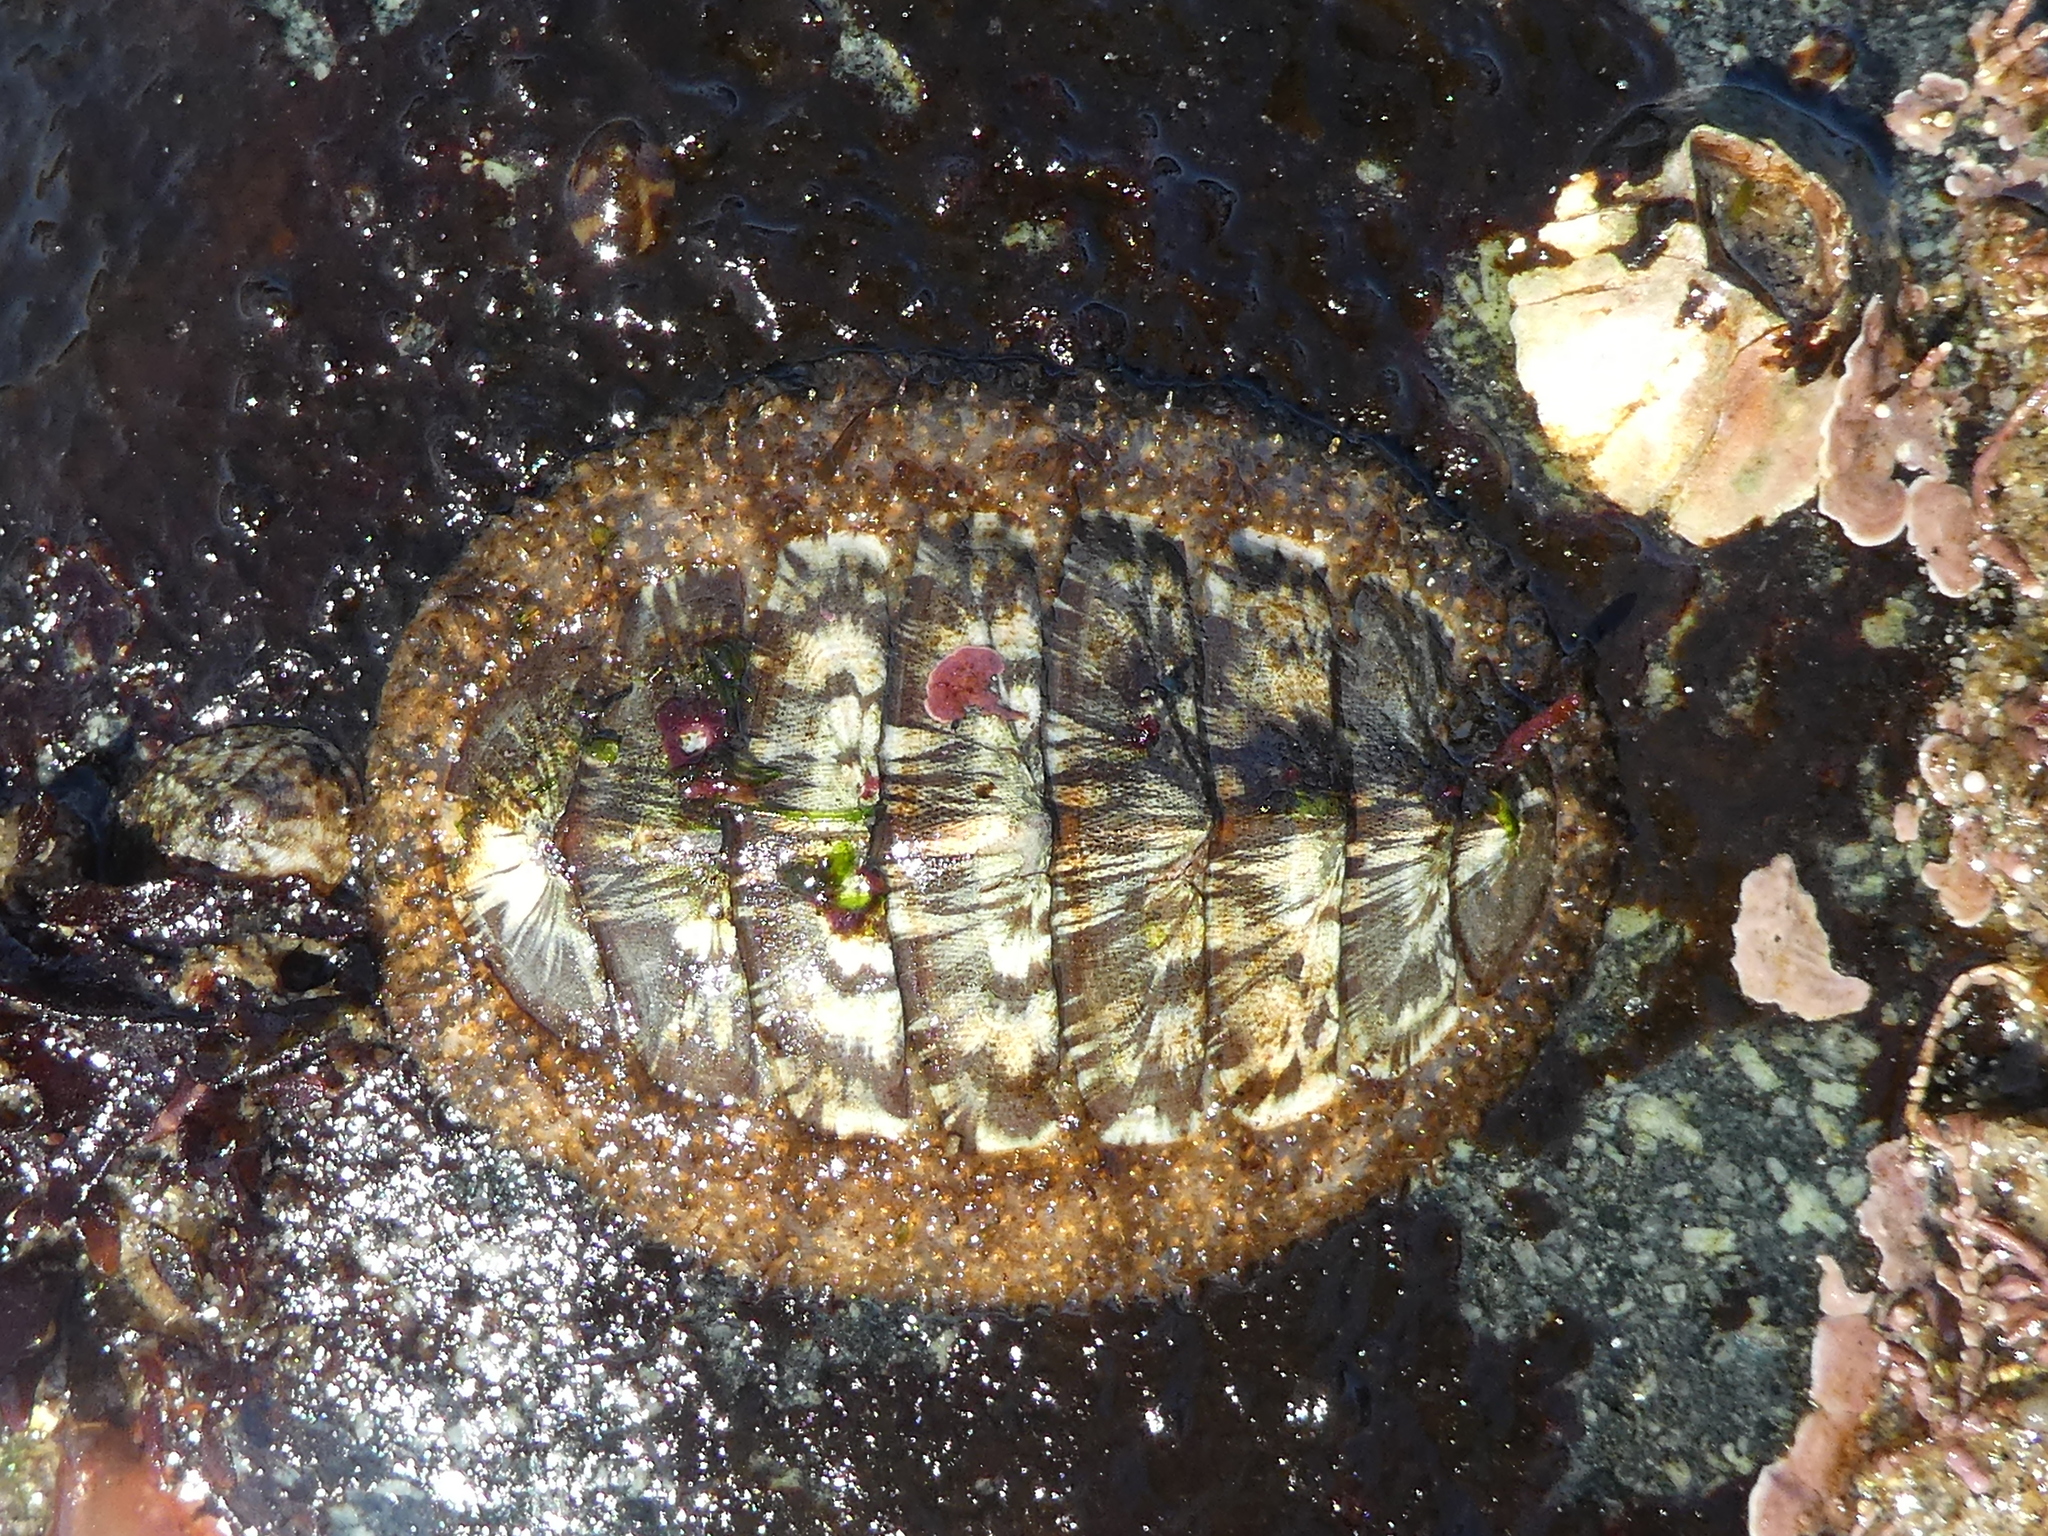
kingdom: Animalia
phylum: Mollusca
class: Polyplacophora
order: Chitonida
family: Mopaliidae
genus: Mopalia
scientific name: Mopalia lignosa
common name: Woody chiton
